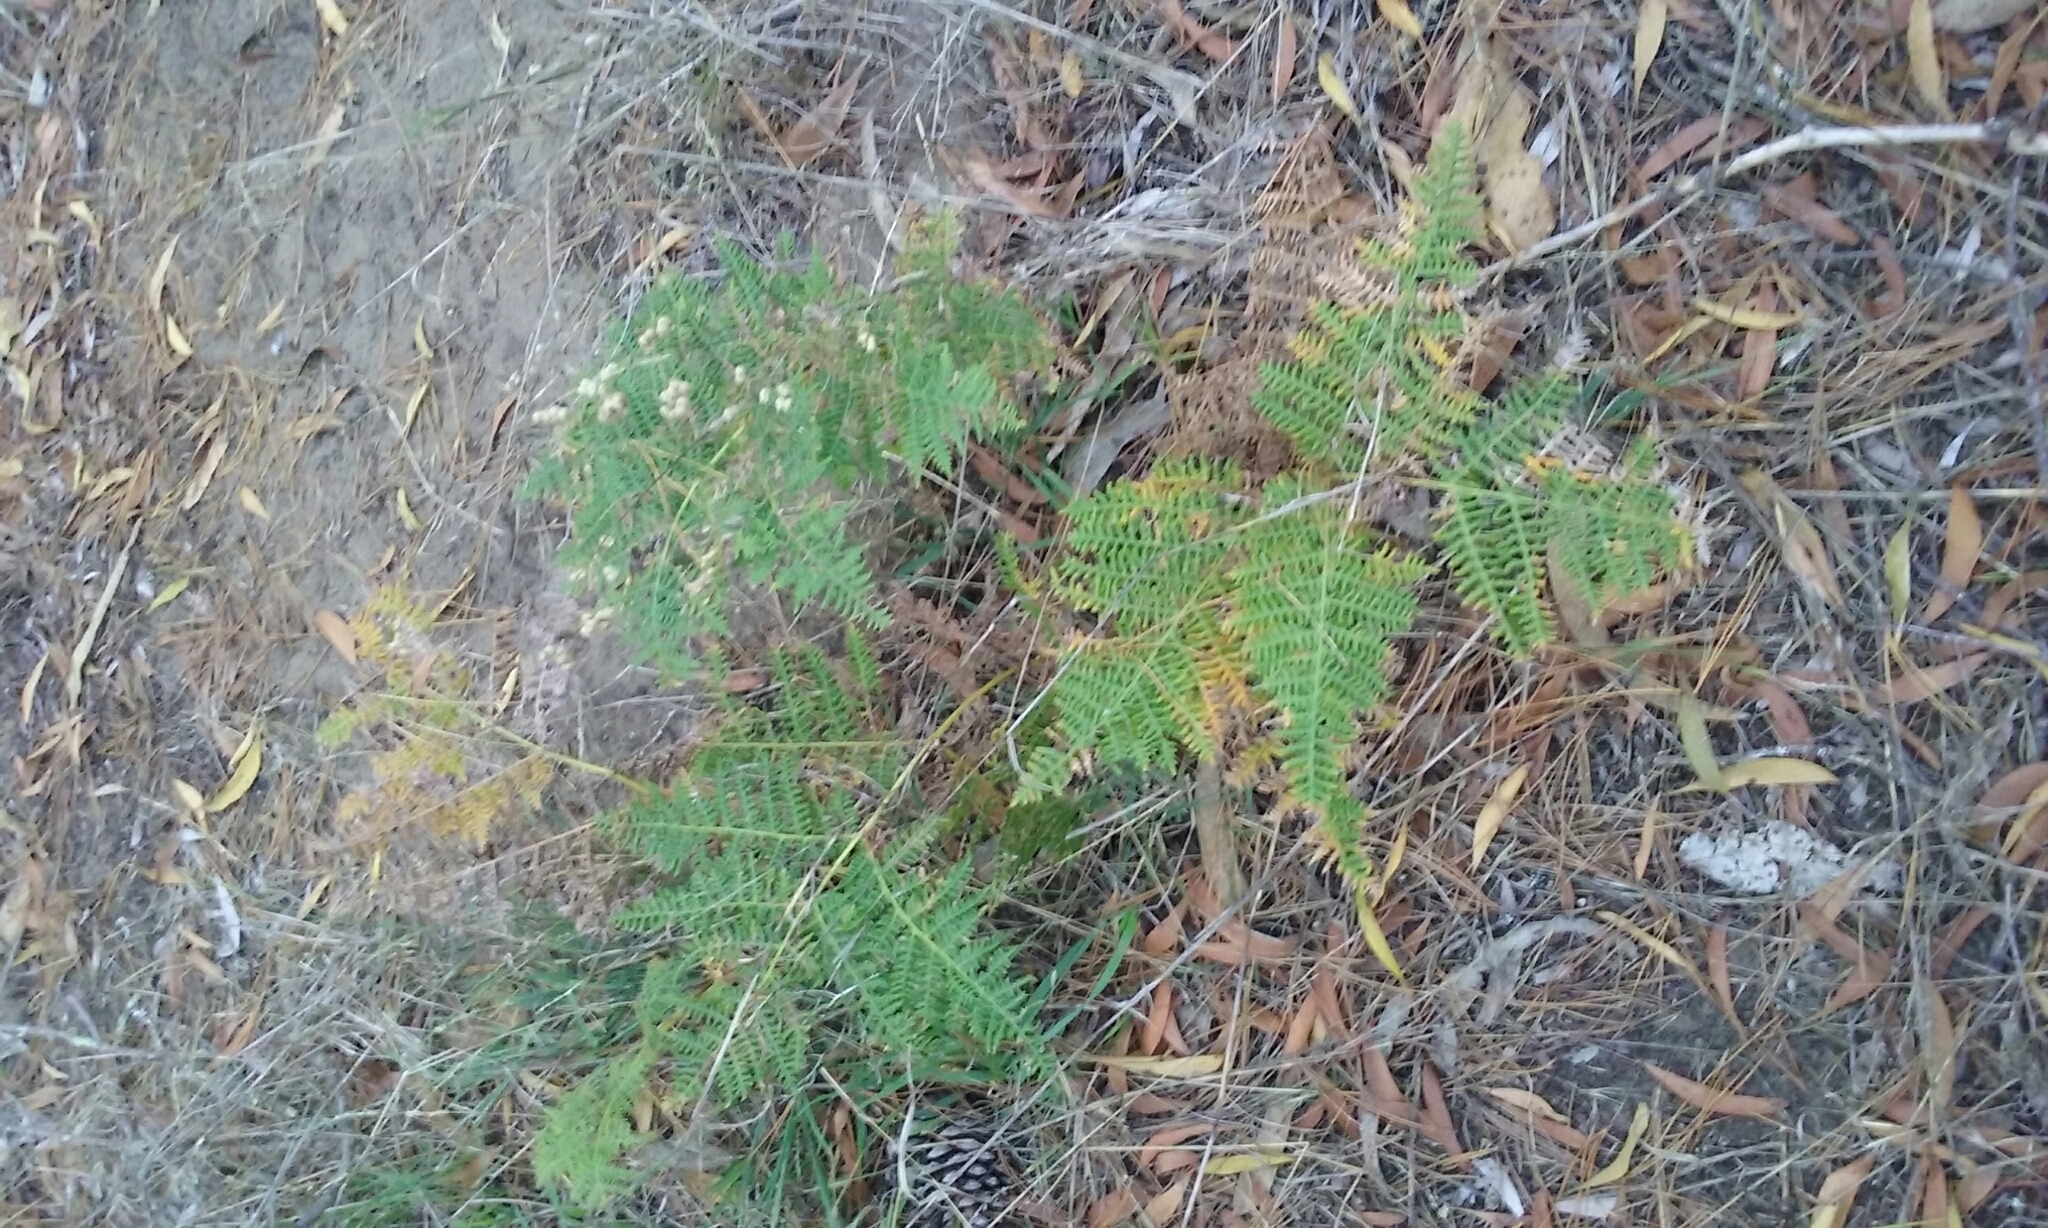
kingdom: Plantae
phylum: Tracheophyta
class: Polypodiopsida
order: Polypodiales
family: Dennstaedtiaceae
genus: Pteridium
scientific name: Pteridium aquilinum
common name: Bracken
